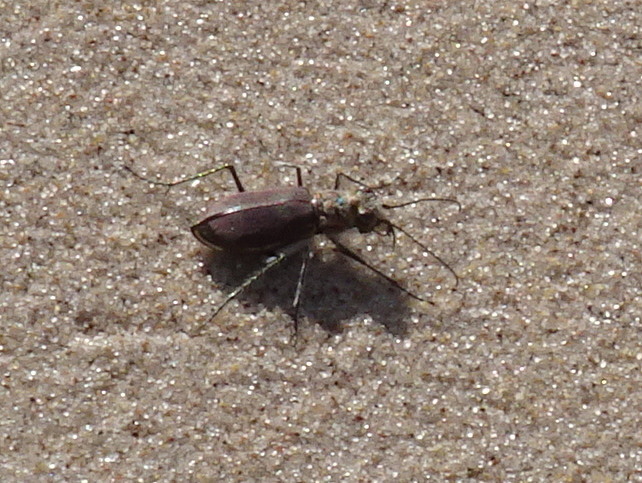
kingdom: Animalia
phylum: Arthropoda
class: Insecta
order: Coleoptera
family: Carabidae
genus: Cicindela
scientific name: Cicindela hirticollis
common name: Hairy-necked tiger beetle
